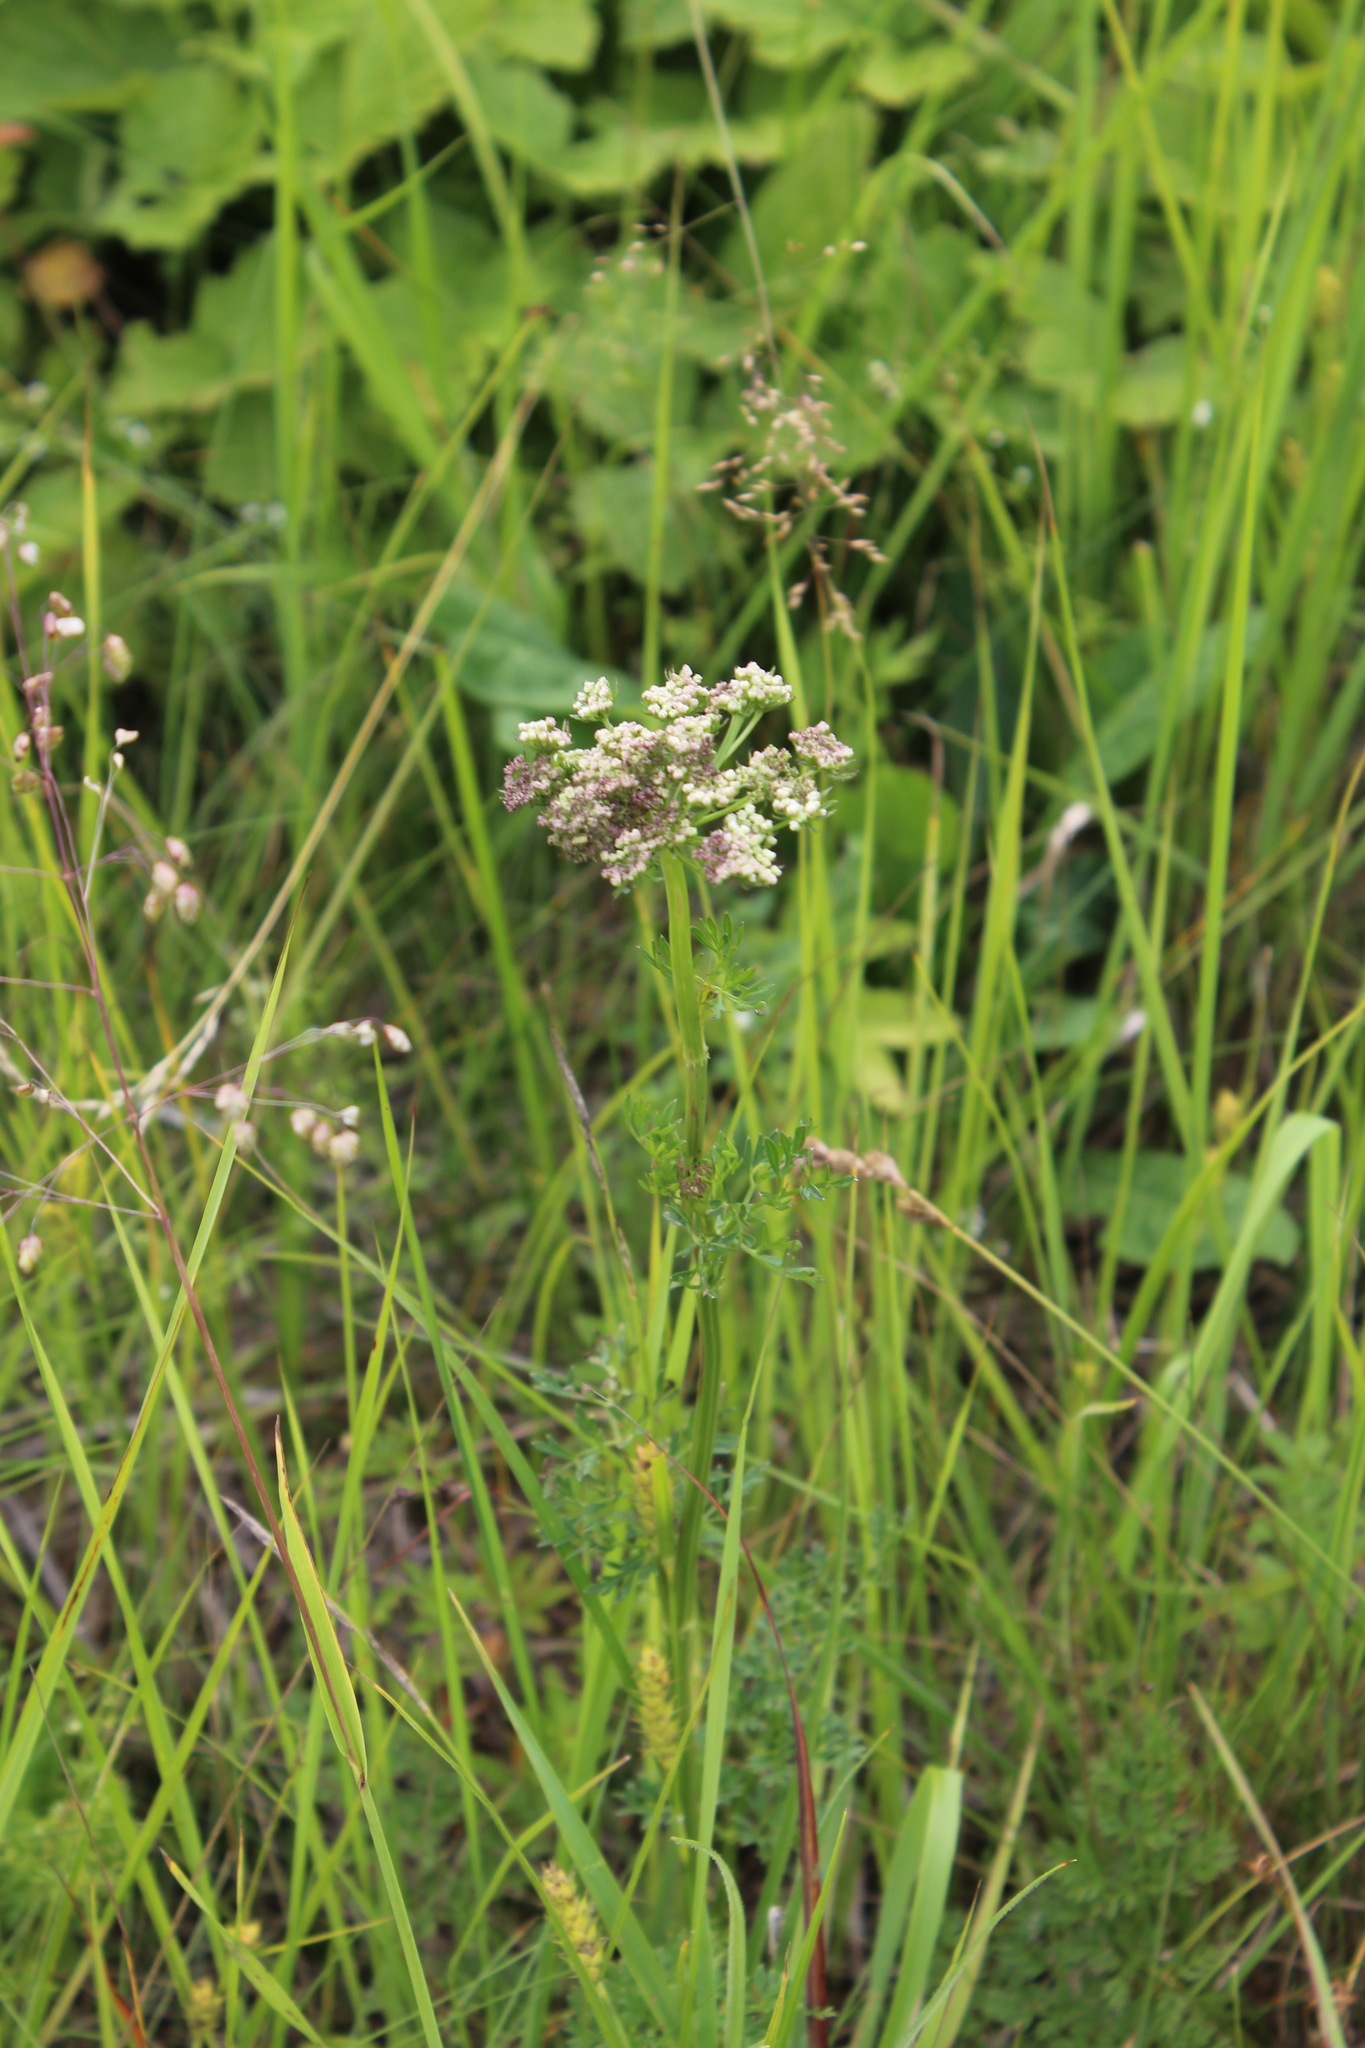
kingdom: Plantae
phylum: Tracheophyta
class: Magnoliopsida
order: Apiales
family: Apiaceae
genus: Selinum
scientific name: Selinum carvifolia
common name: Cambridge milk-parsley
